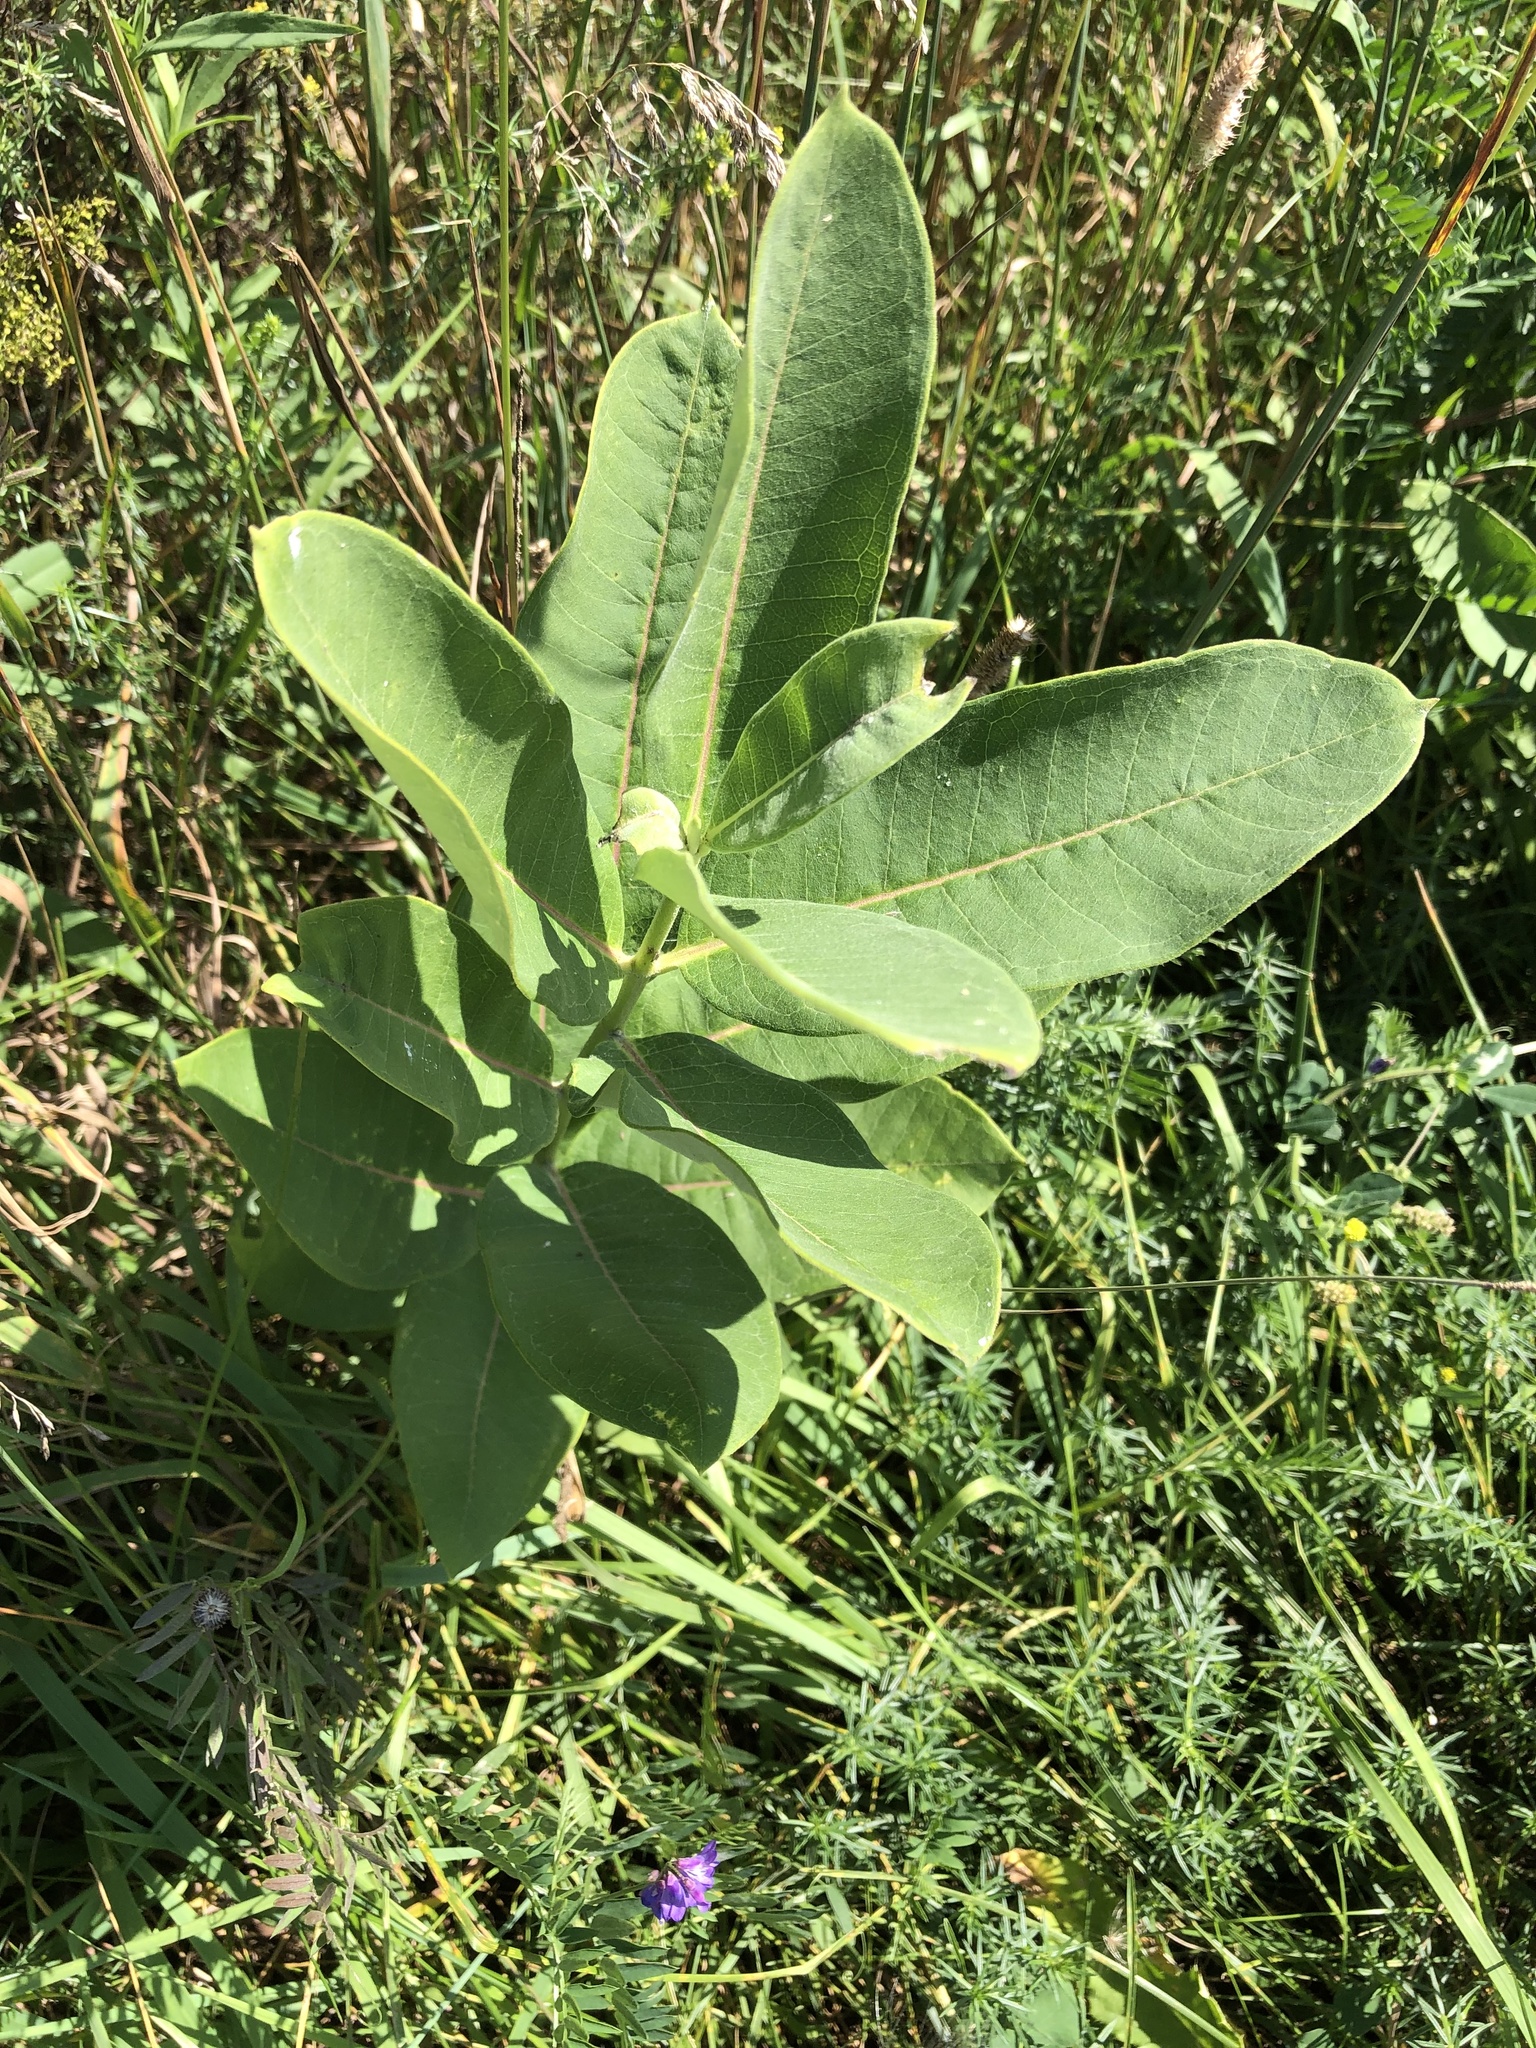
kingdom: Plantae
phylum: Tracheophyta
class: Magnoliopsida
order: Gentianales
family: Apocynaceae
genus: Asclepias
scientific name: Asclepias syriaca
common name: Common milkweed
